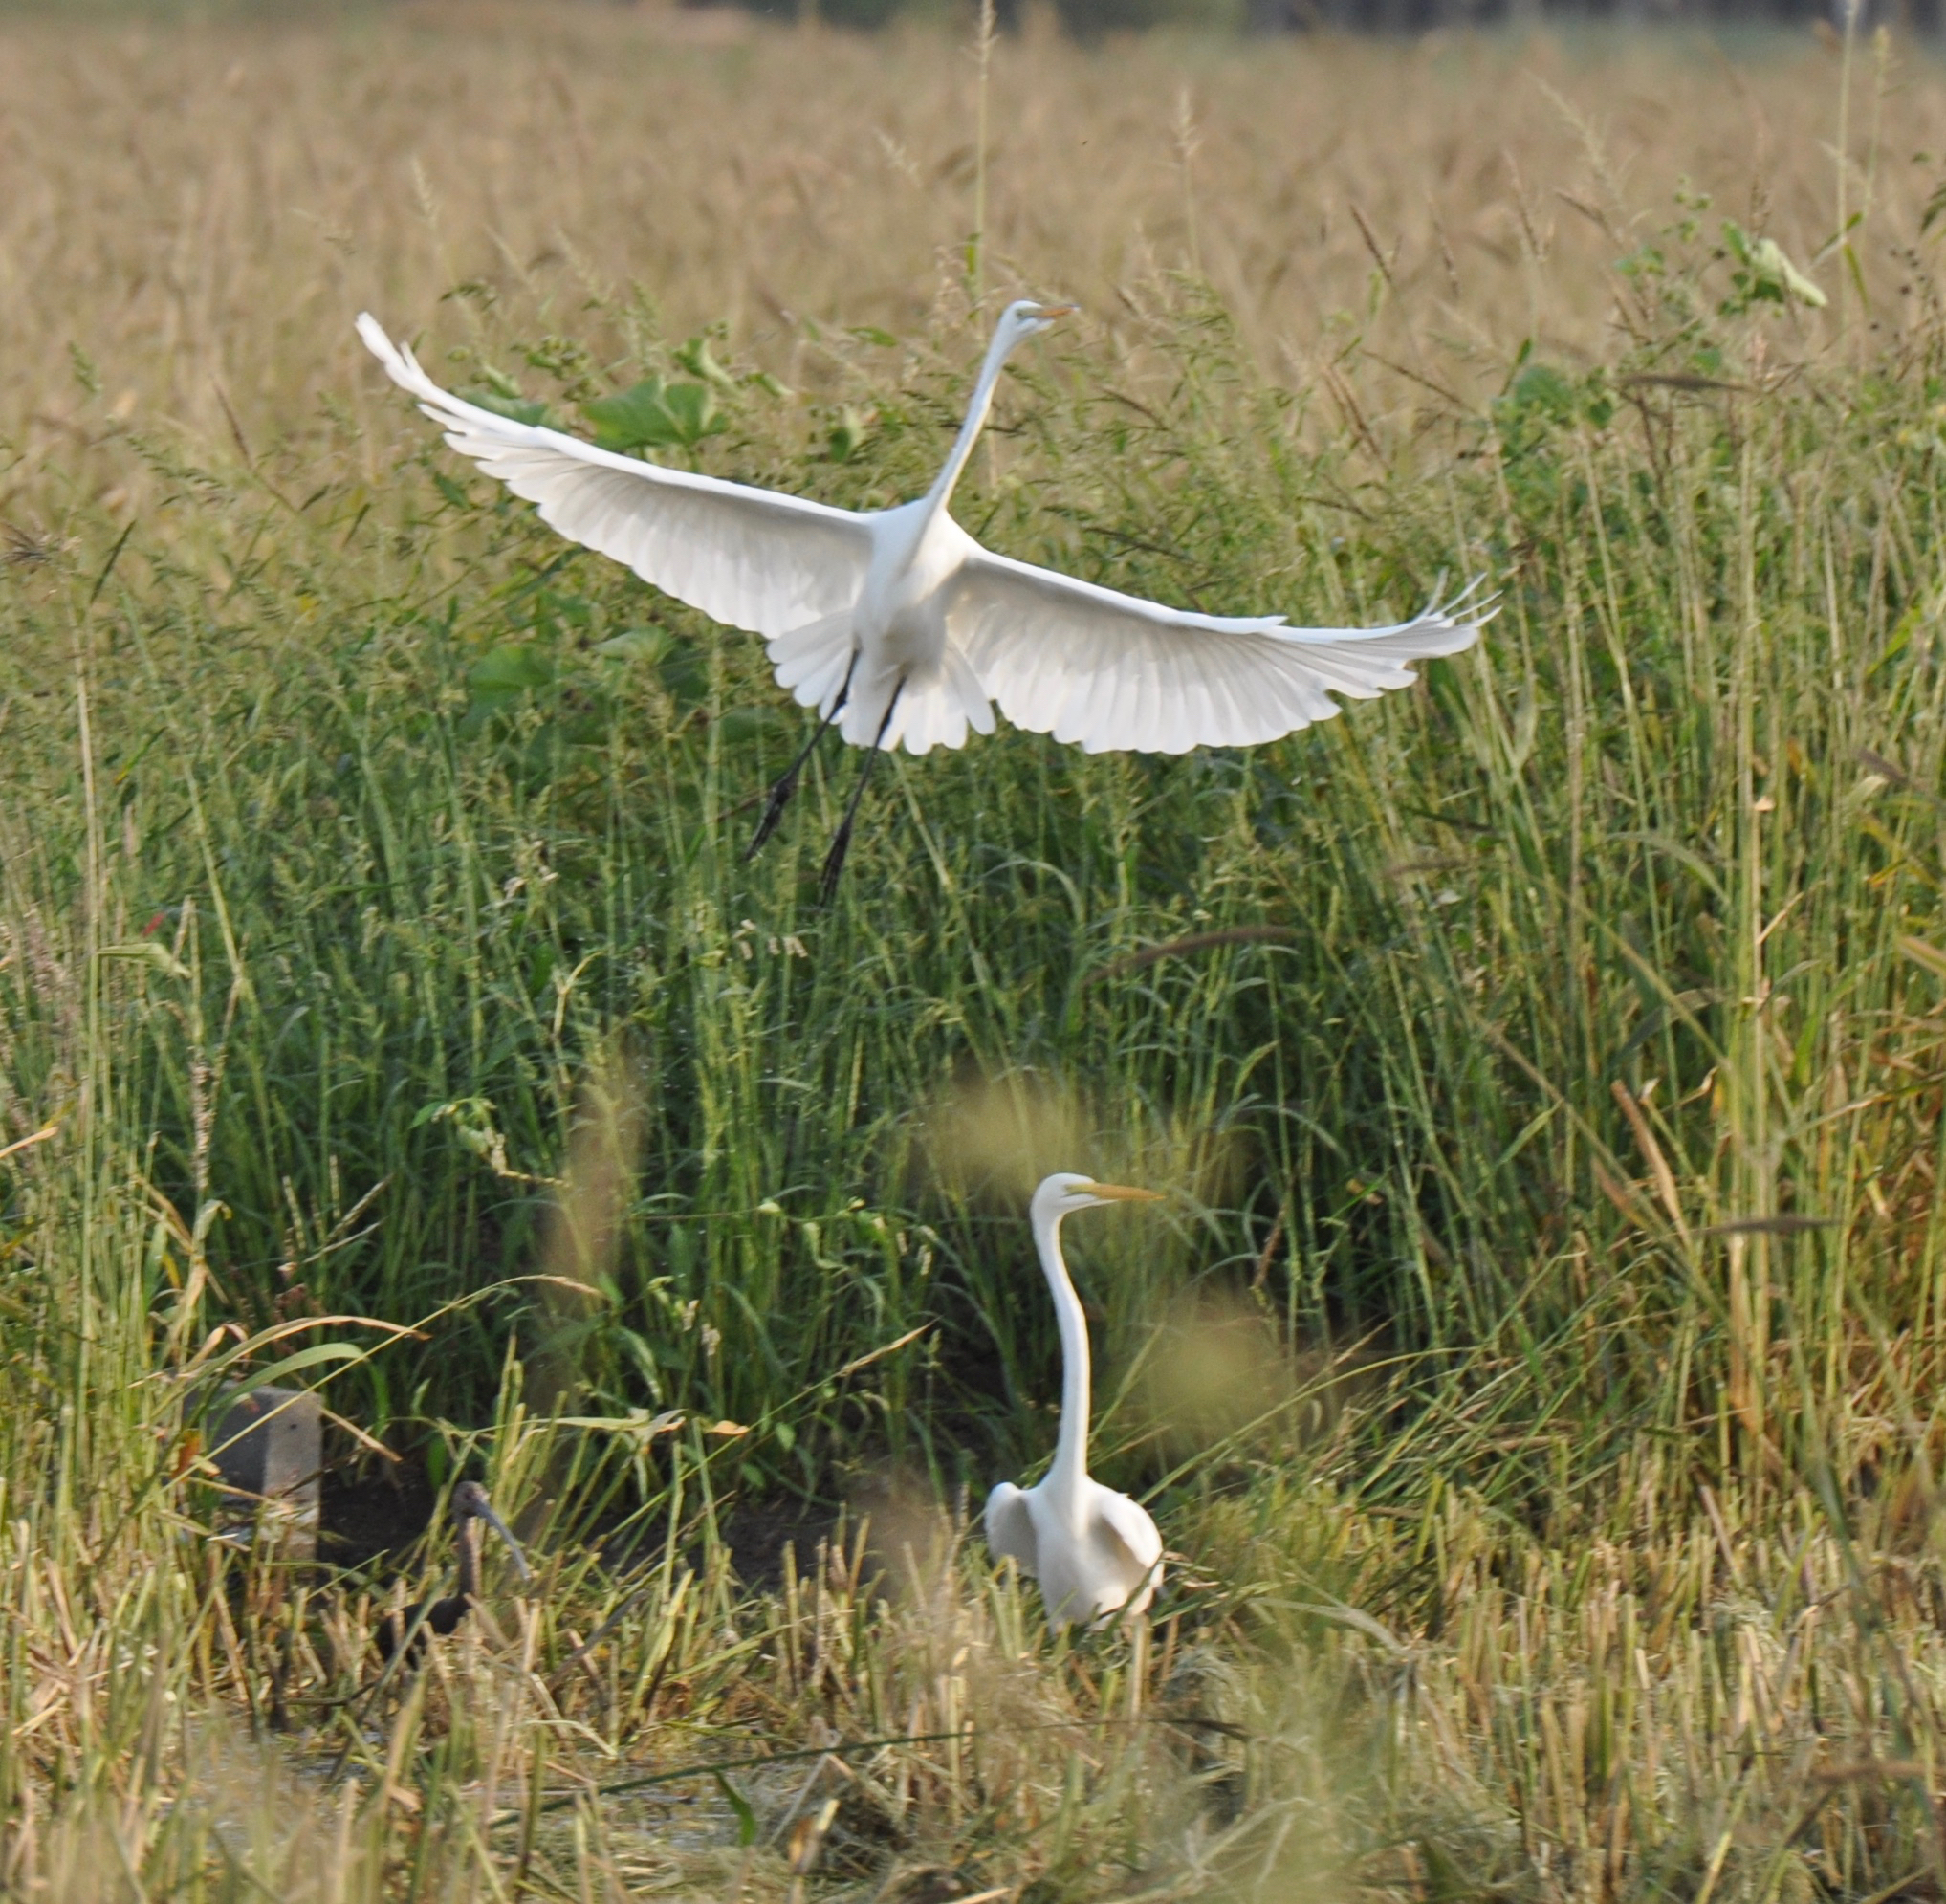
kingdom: Animalia
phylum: Chordata
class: Aves
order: Pelecaniformes
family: Ardeidae
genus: Ardea
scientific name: Ardea alba
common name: Great egret
